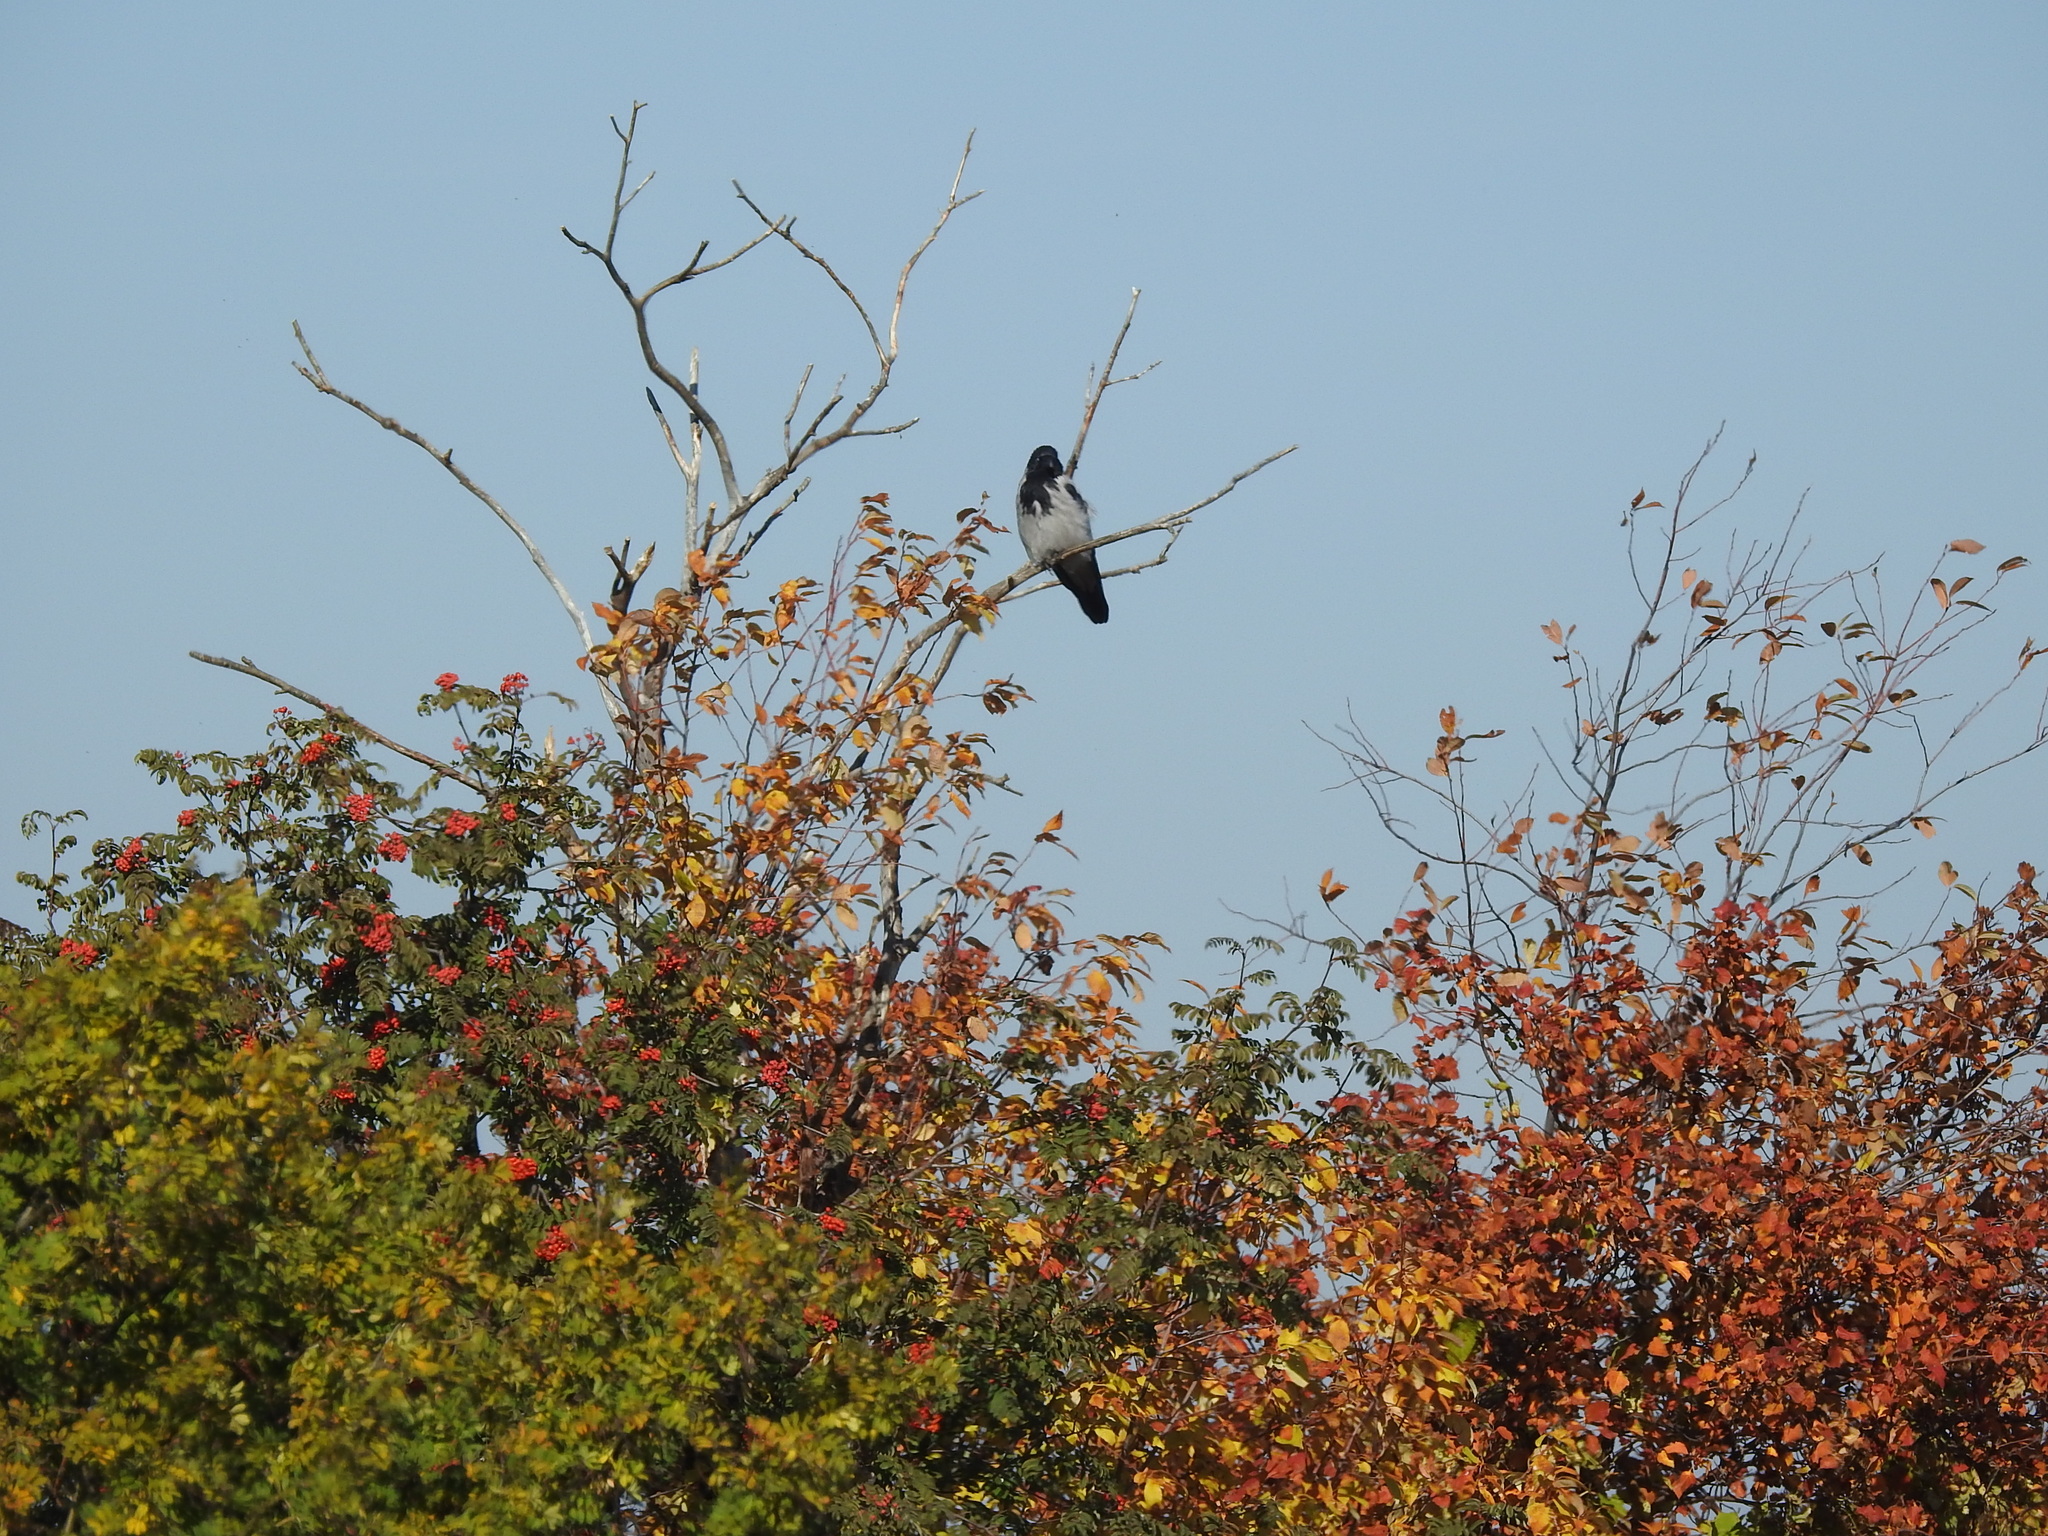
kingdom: Animalia
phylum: Chordata
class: Aves
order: Passeriformes
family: Corvidae
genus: Corvus
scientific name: Corvus cornix
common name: Hooded crow
